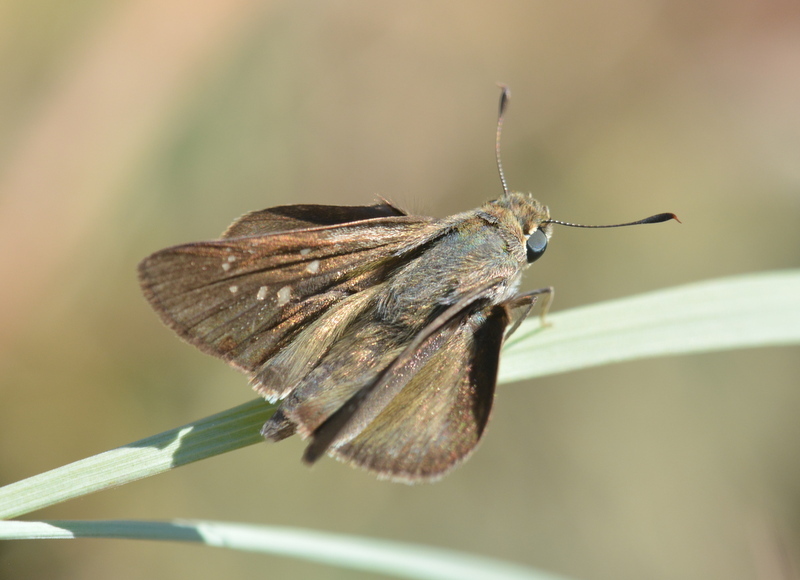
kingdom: Animalia
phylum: Arthropoda
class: Insecta
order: Lepidoptera
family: Hesperiidae
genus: Pelopidas
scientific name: Pelopidas mathias
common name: Black-branded swift
